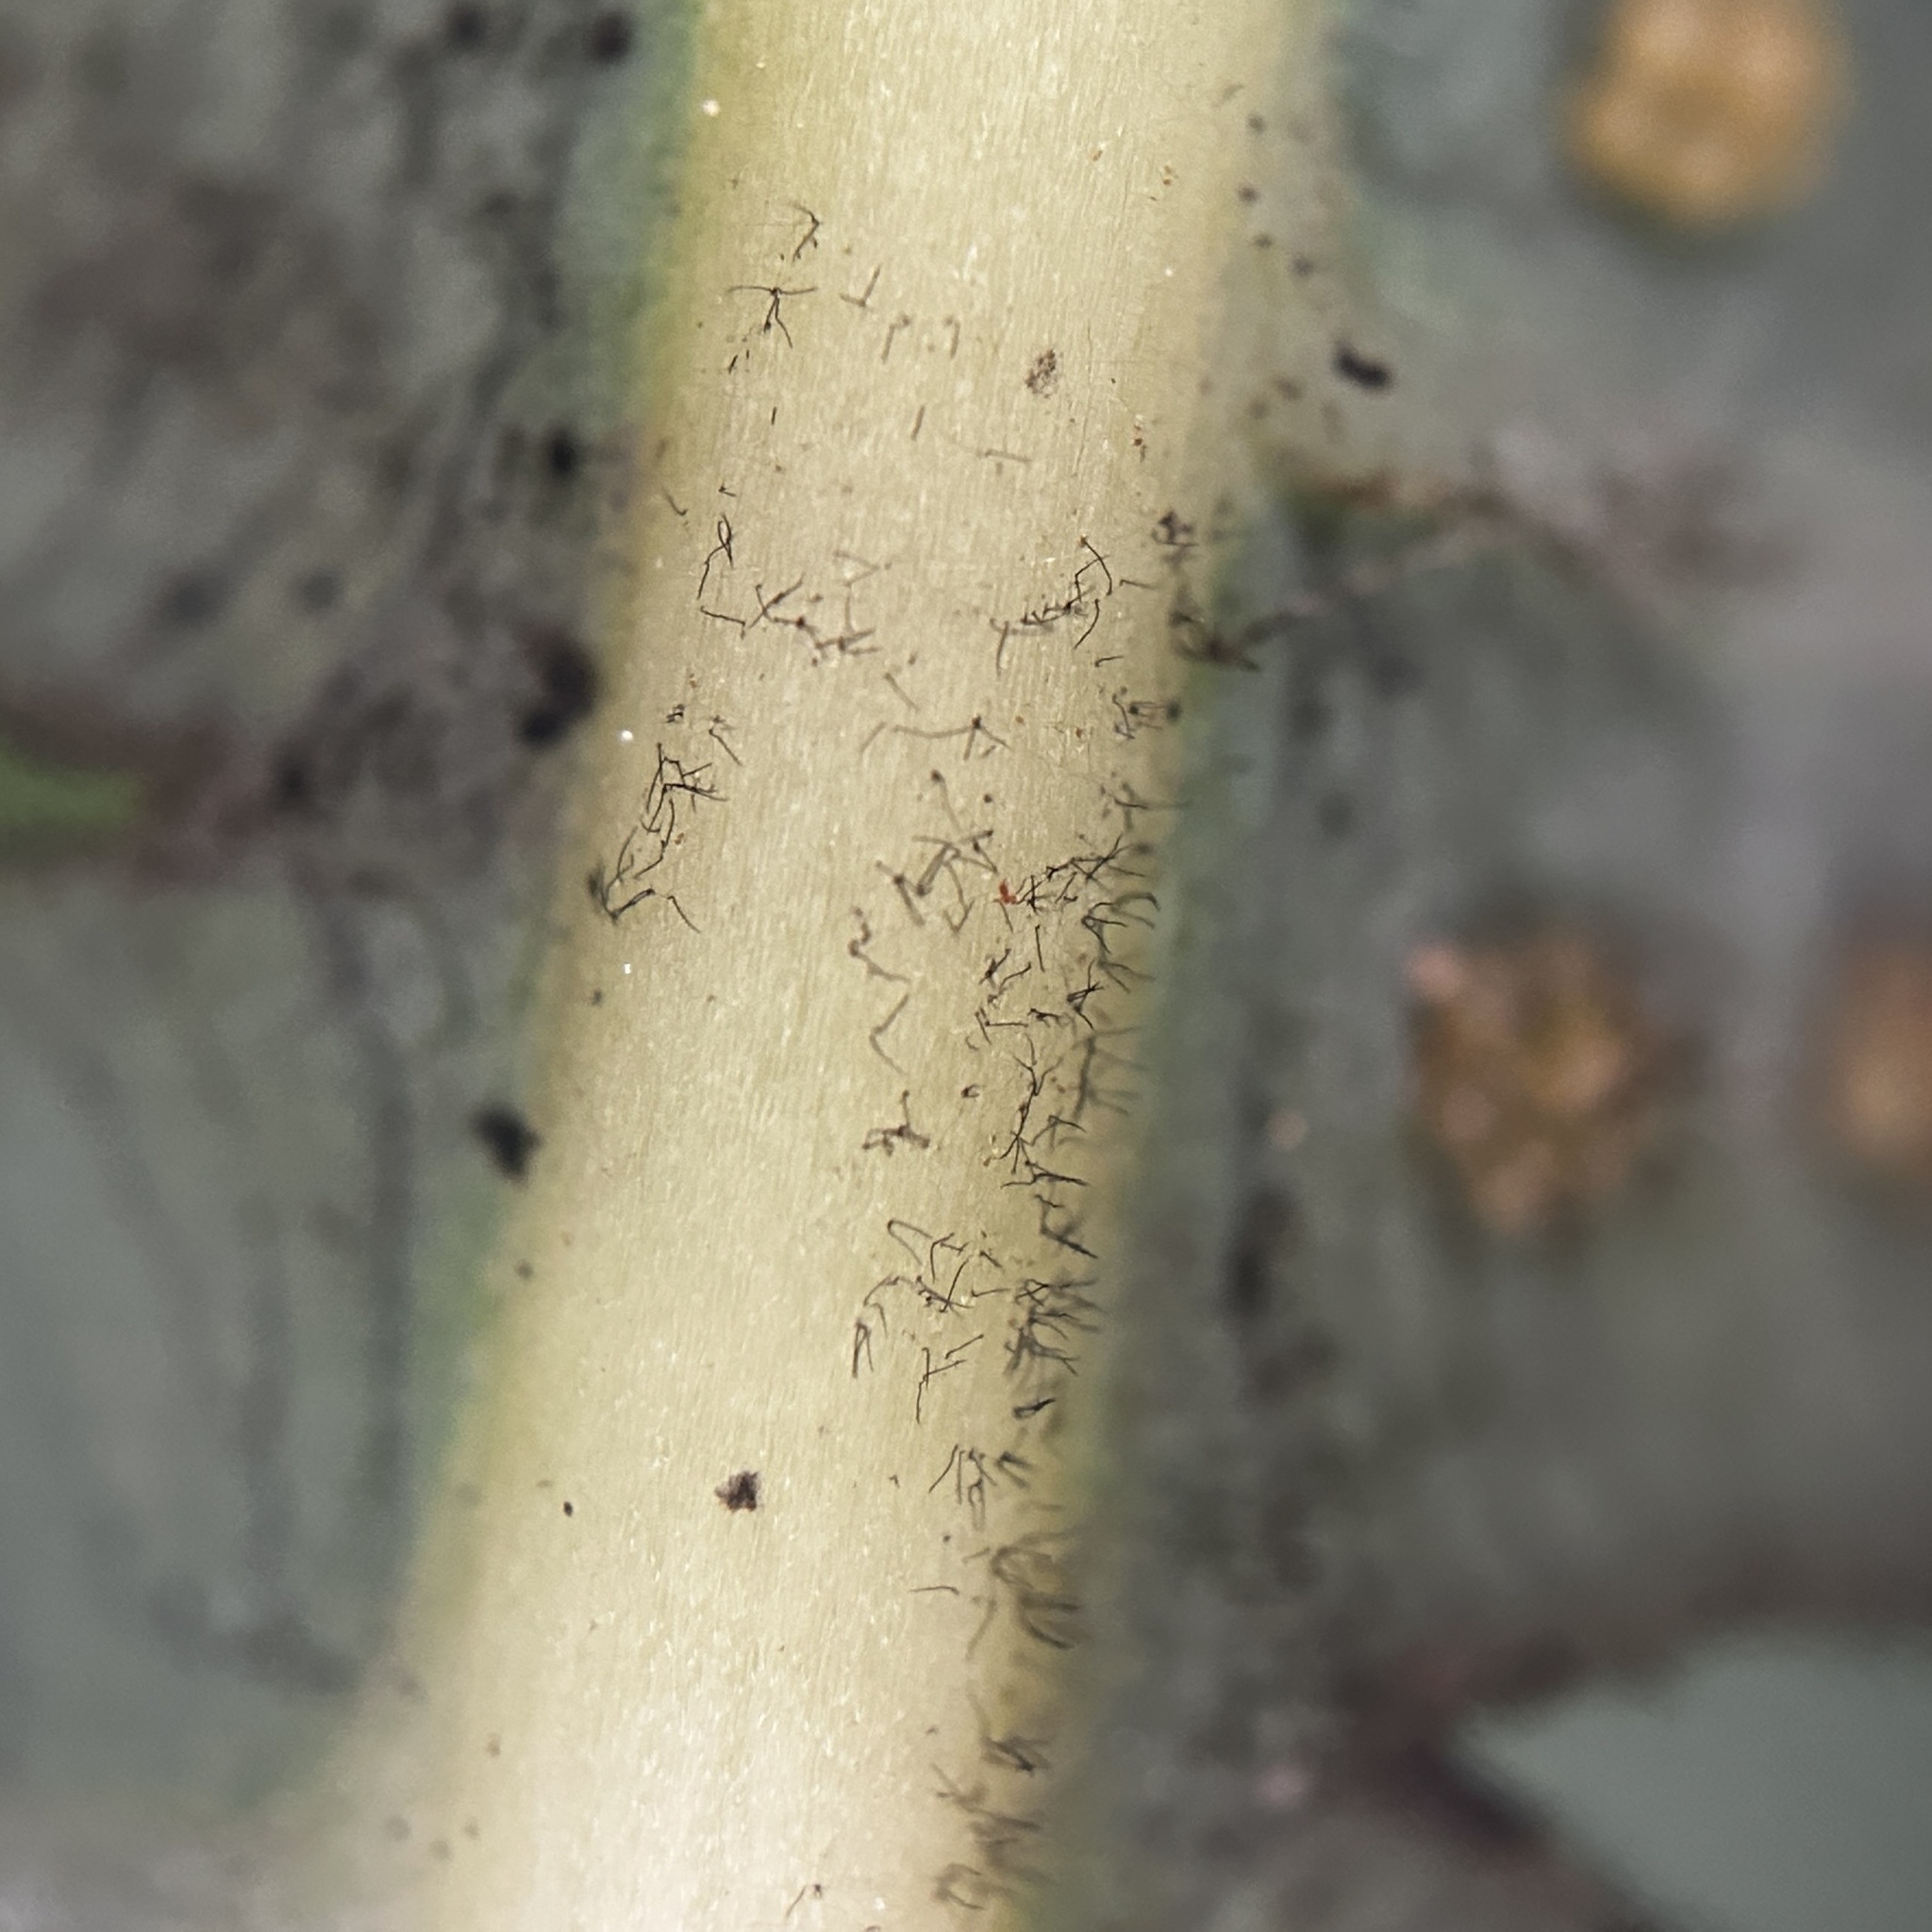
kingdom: Plantae
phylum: Tracheophyta
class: Polypodiopsida
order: Gleicheniales
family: Gleicheniaceae
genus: Dicranopteris
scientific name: Dicranopteris curranii
